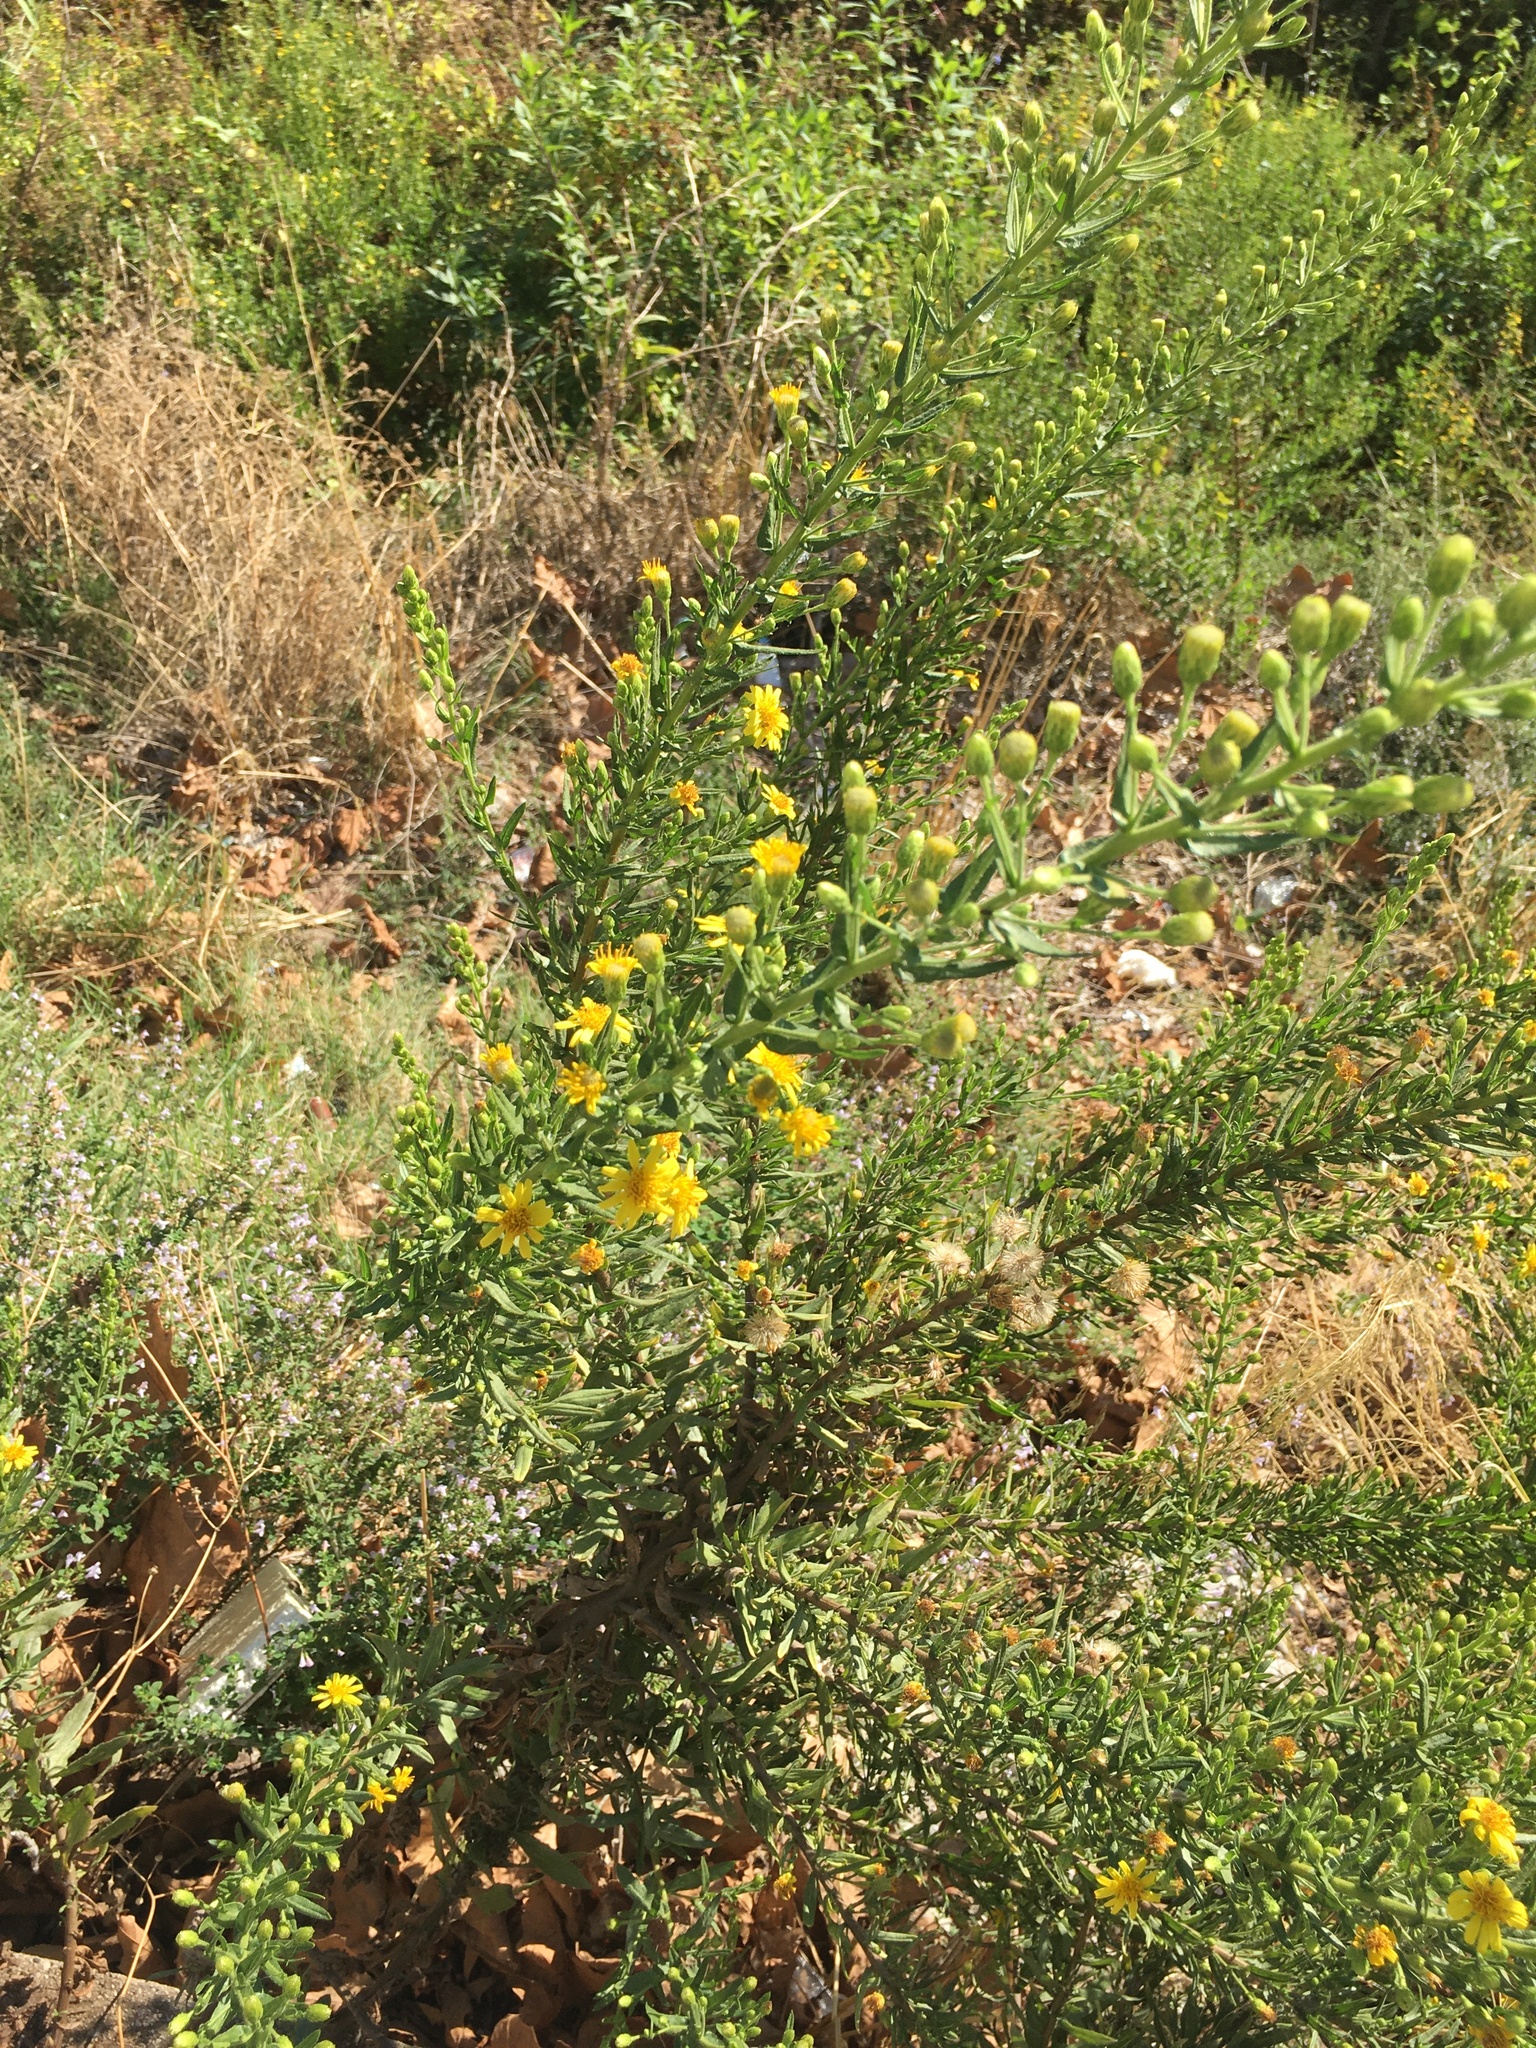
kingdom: Plantae
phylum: Tracheophyta
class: Magnoliopsida
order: Asterales
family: Asteraceae
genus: Dittrichia
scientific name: Dittrichia viscosa
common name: Woody fleabane
